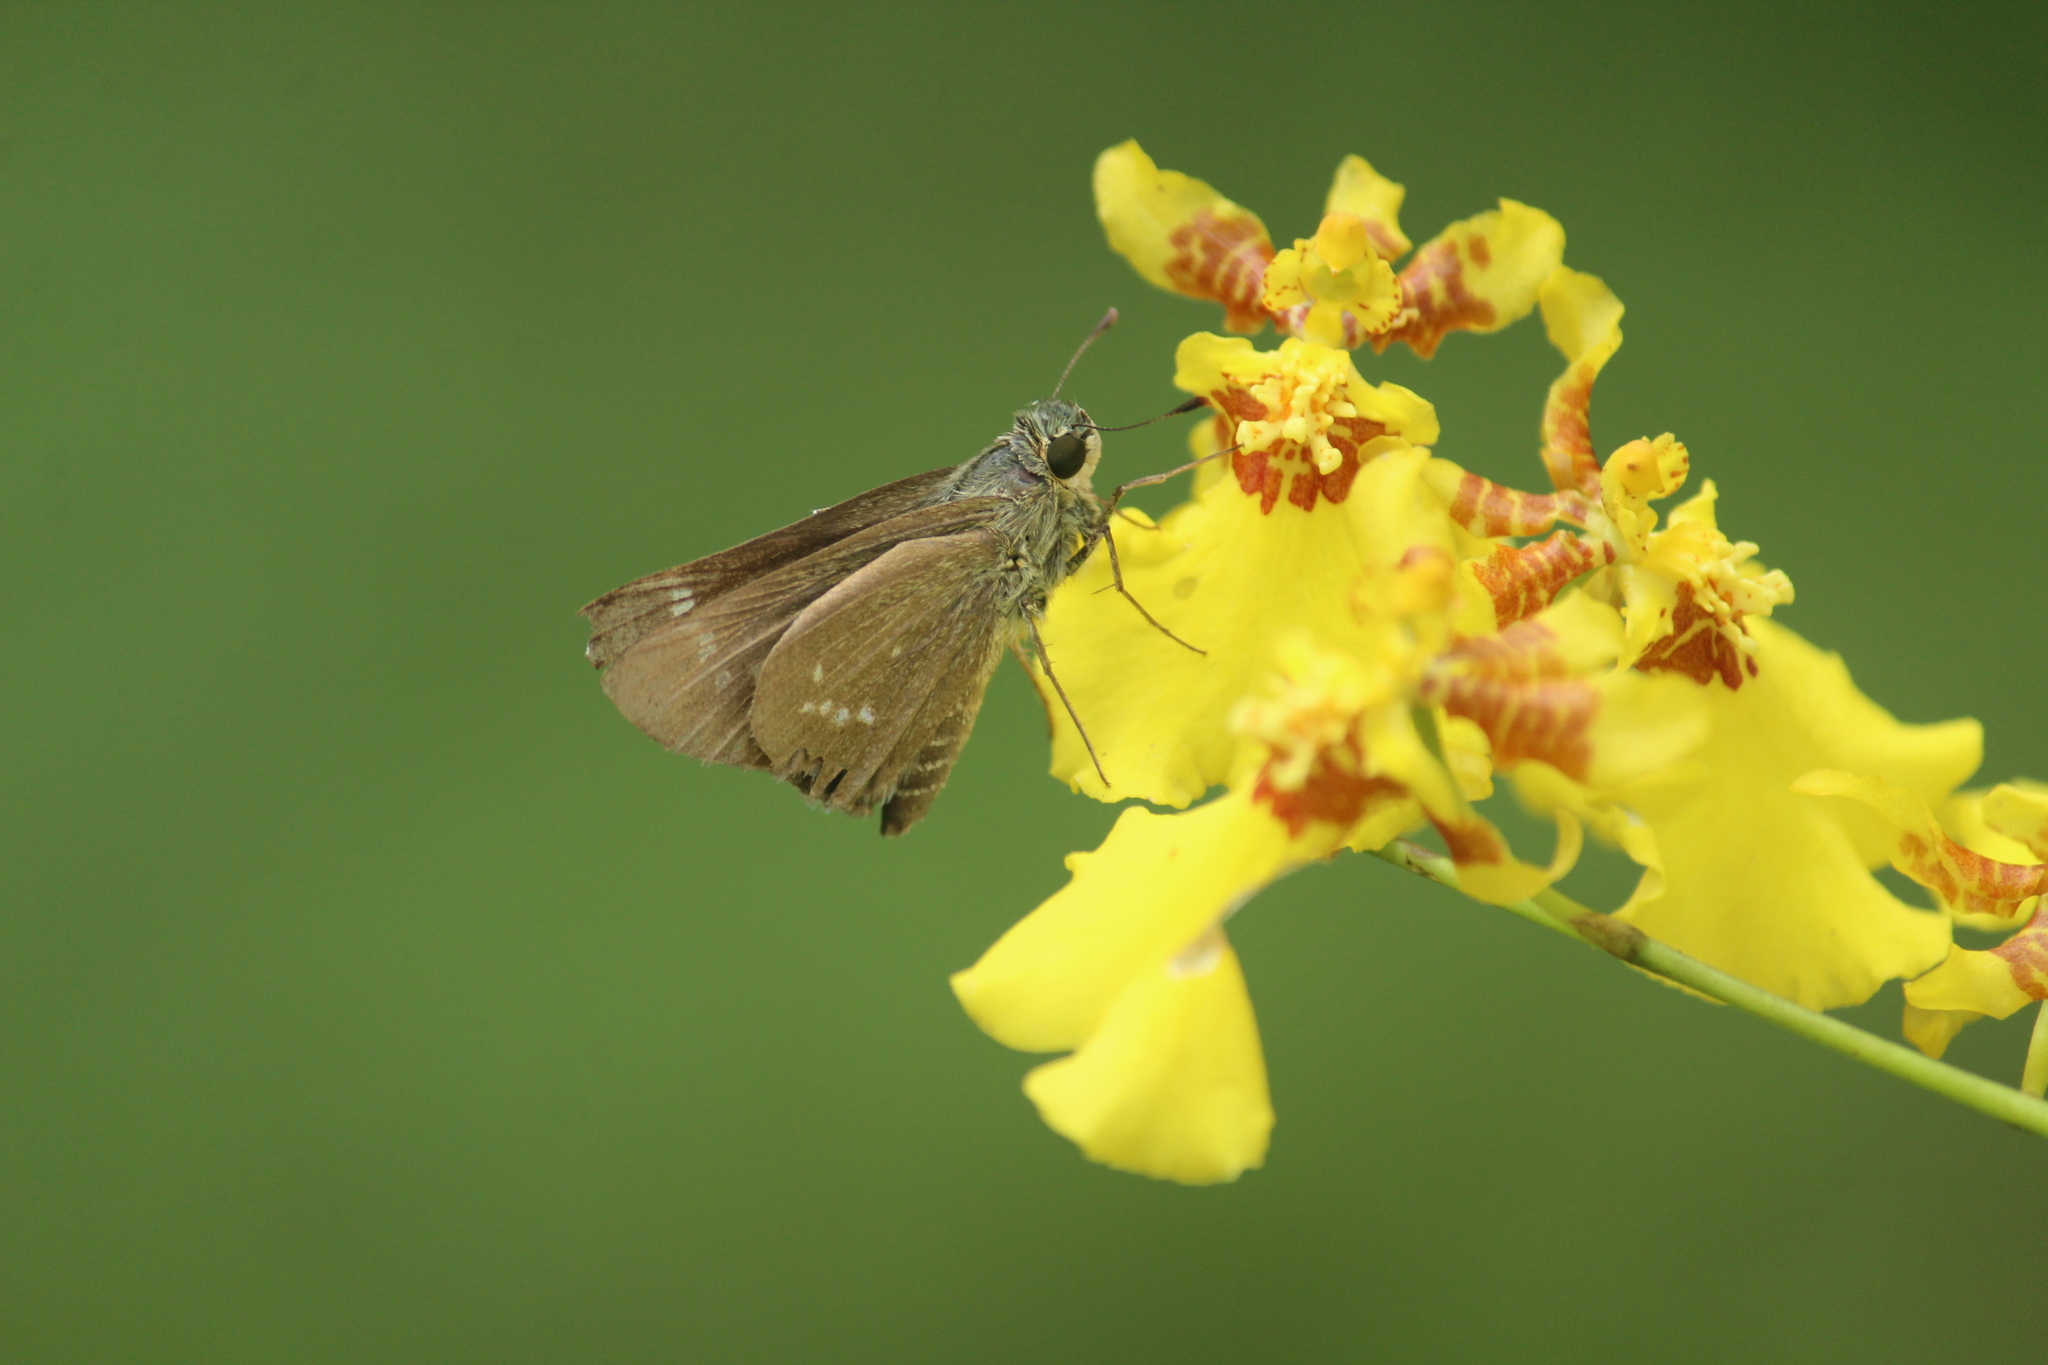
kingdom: Animalia
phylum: Arthropoda
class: Insecta
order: Lepidoptera
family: Hesperiidae
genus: Parnara
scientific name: Parnara naso
